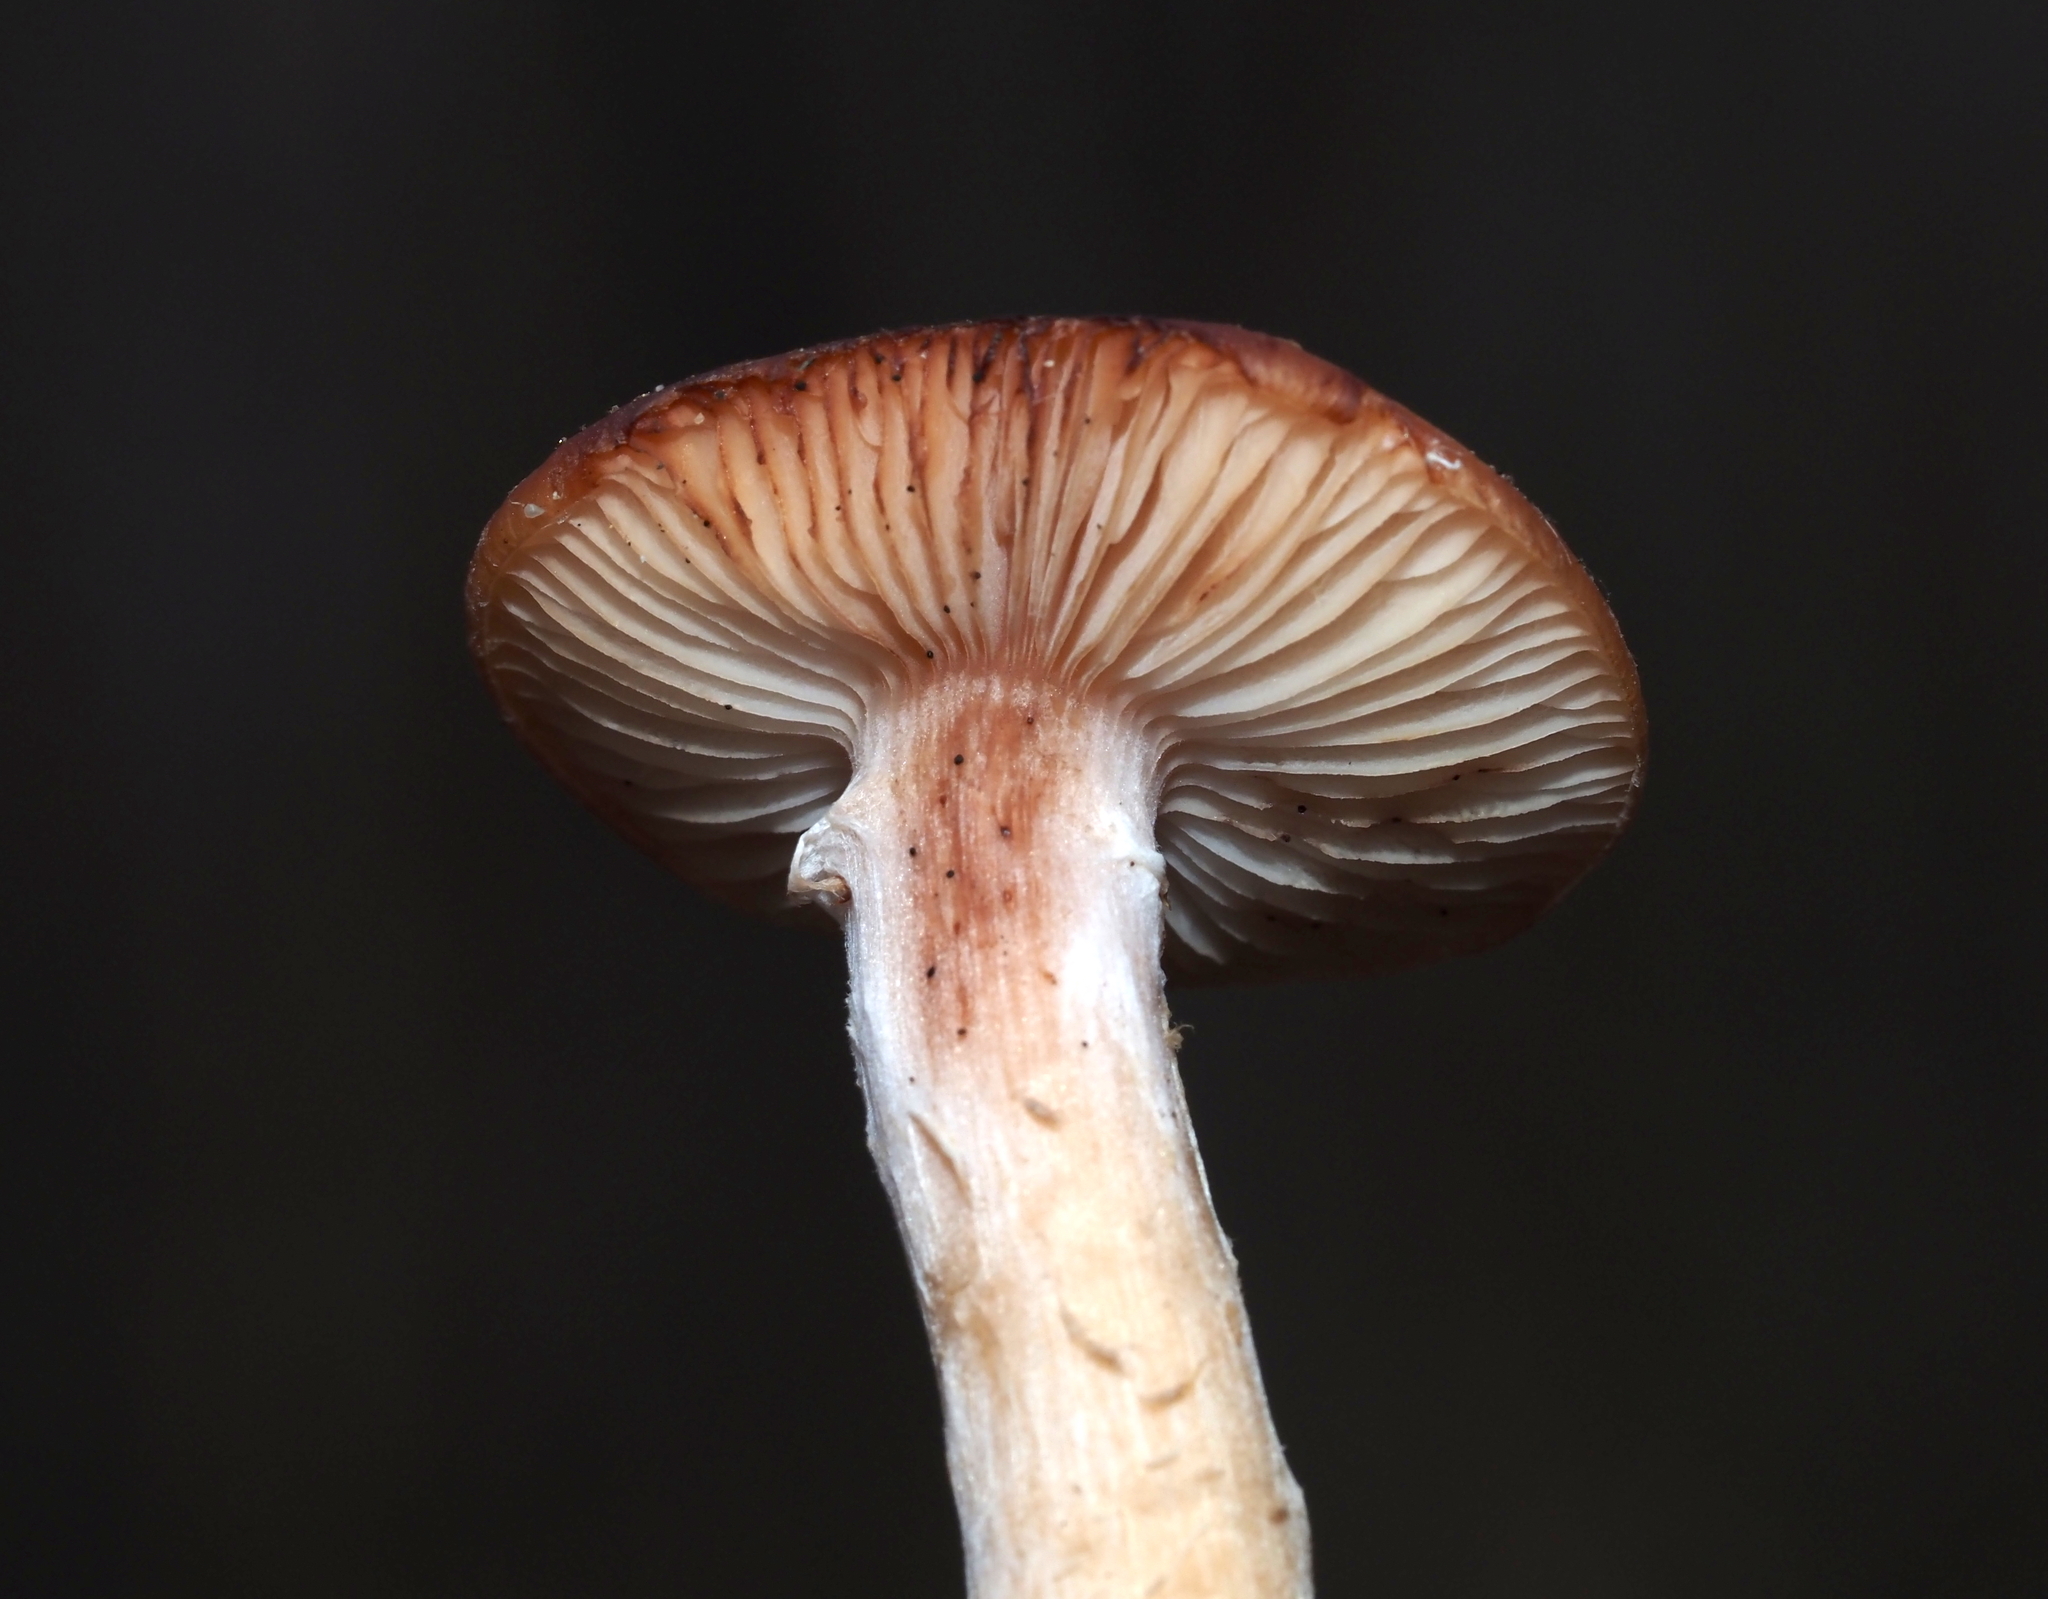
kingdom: Fungi
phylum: Basidiomycota
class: Agaricomycetes
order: Agaricales
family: Physalacriaceae
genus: Armillaria
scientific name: Armillaria gallica
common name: Bulbous honey fungus
